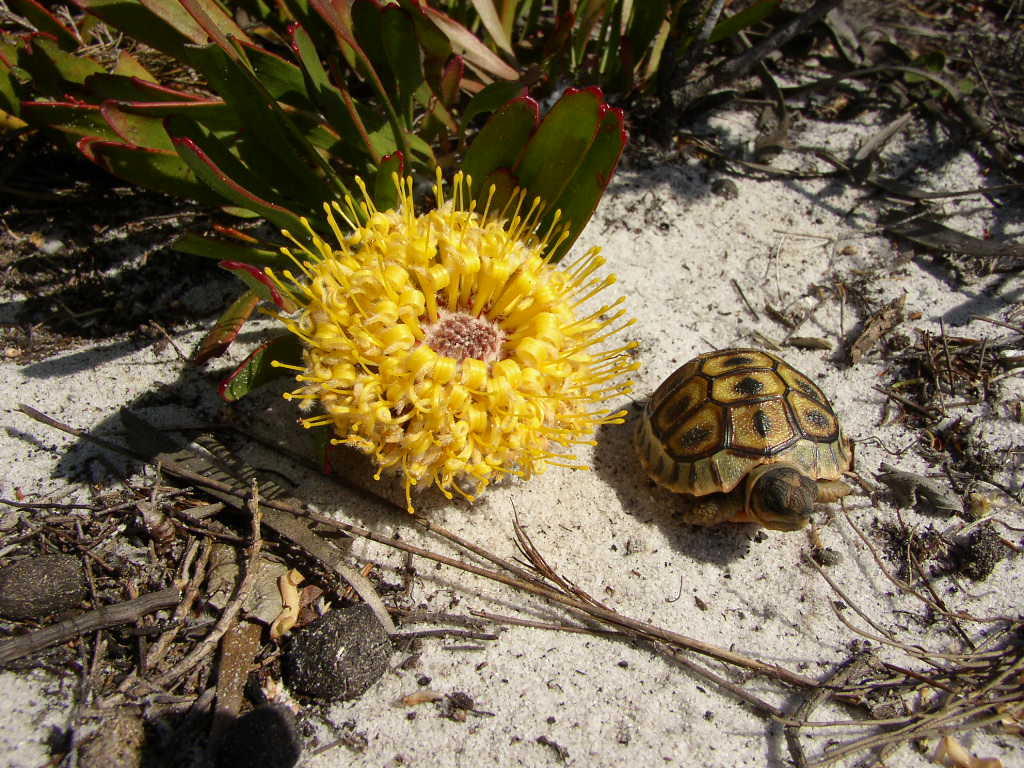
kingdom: Animalia
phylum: Chordata
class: Testudines
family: Testudinidae
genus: Chersina
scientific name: Chersina angulata
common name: South african bowsprit tortoise
